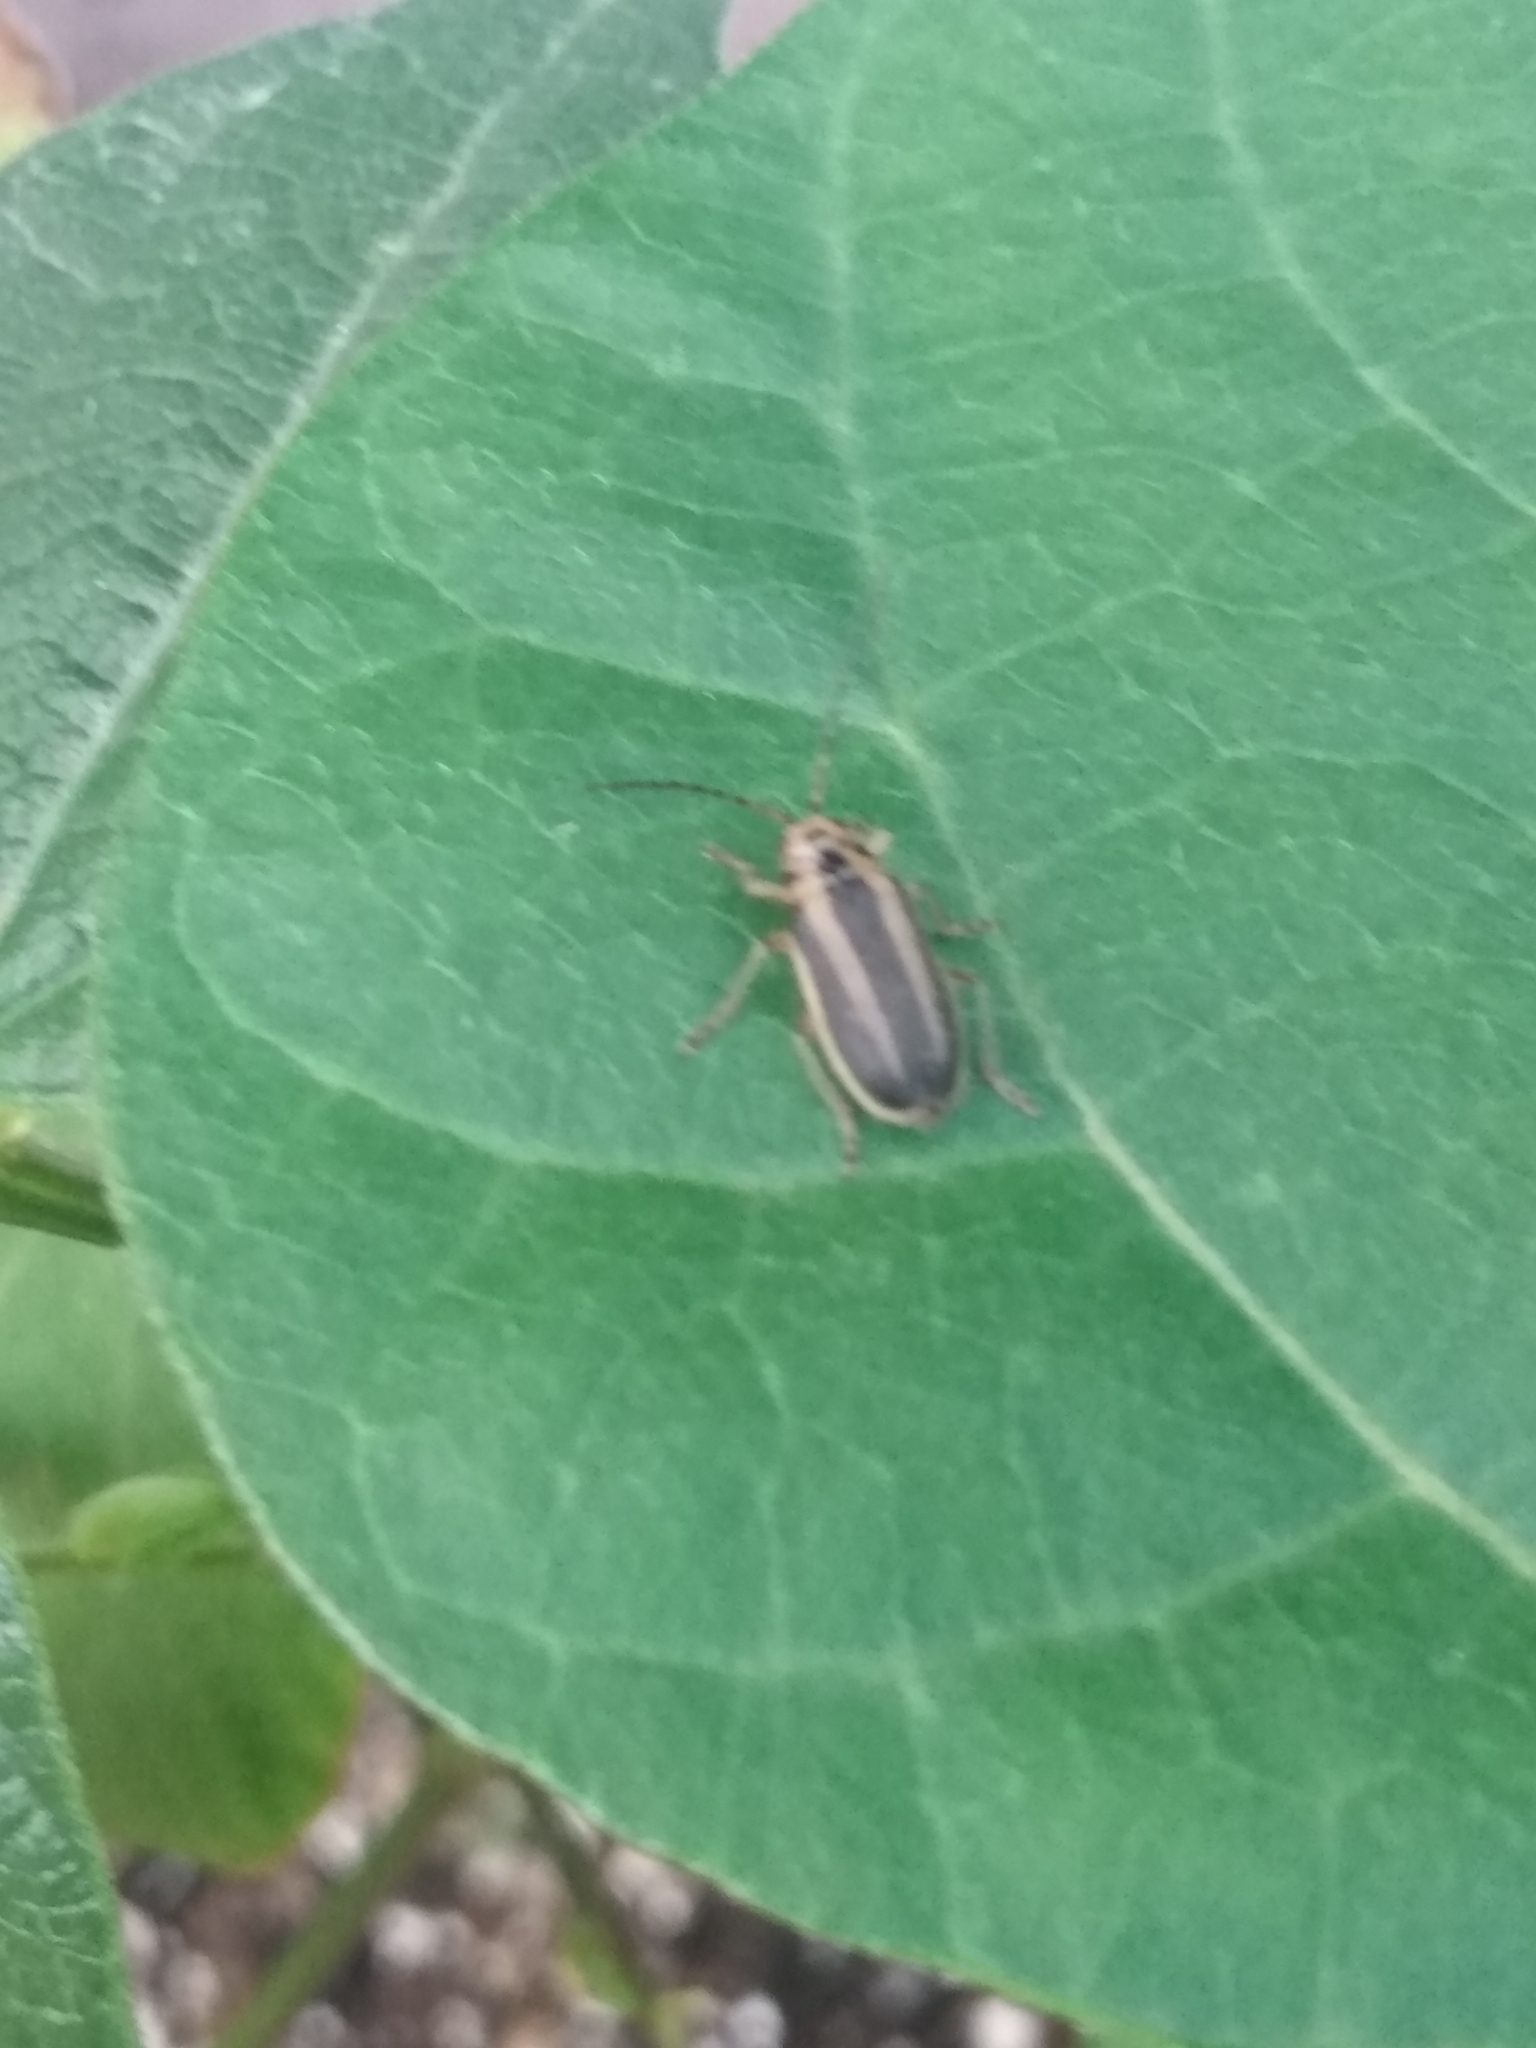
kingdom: Animalia
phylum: Arthropoda
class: Insecta
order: Coleoptera
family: Chrysomelidae
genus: Trirhabda
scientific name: Trirhabda canadensis
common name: Goldenrod leaf beetle
